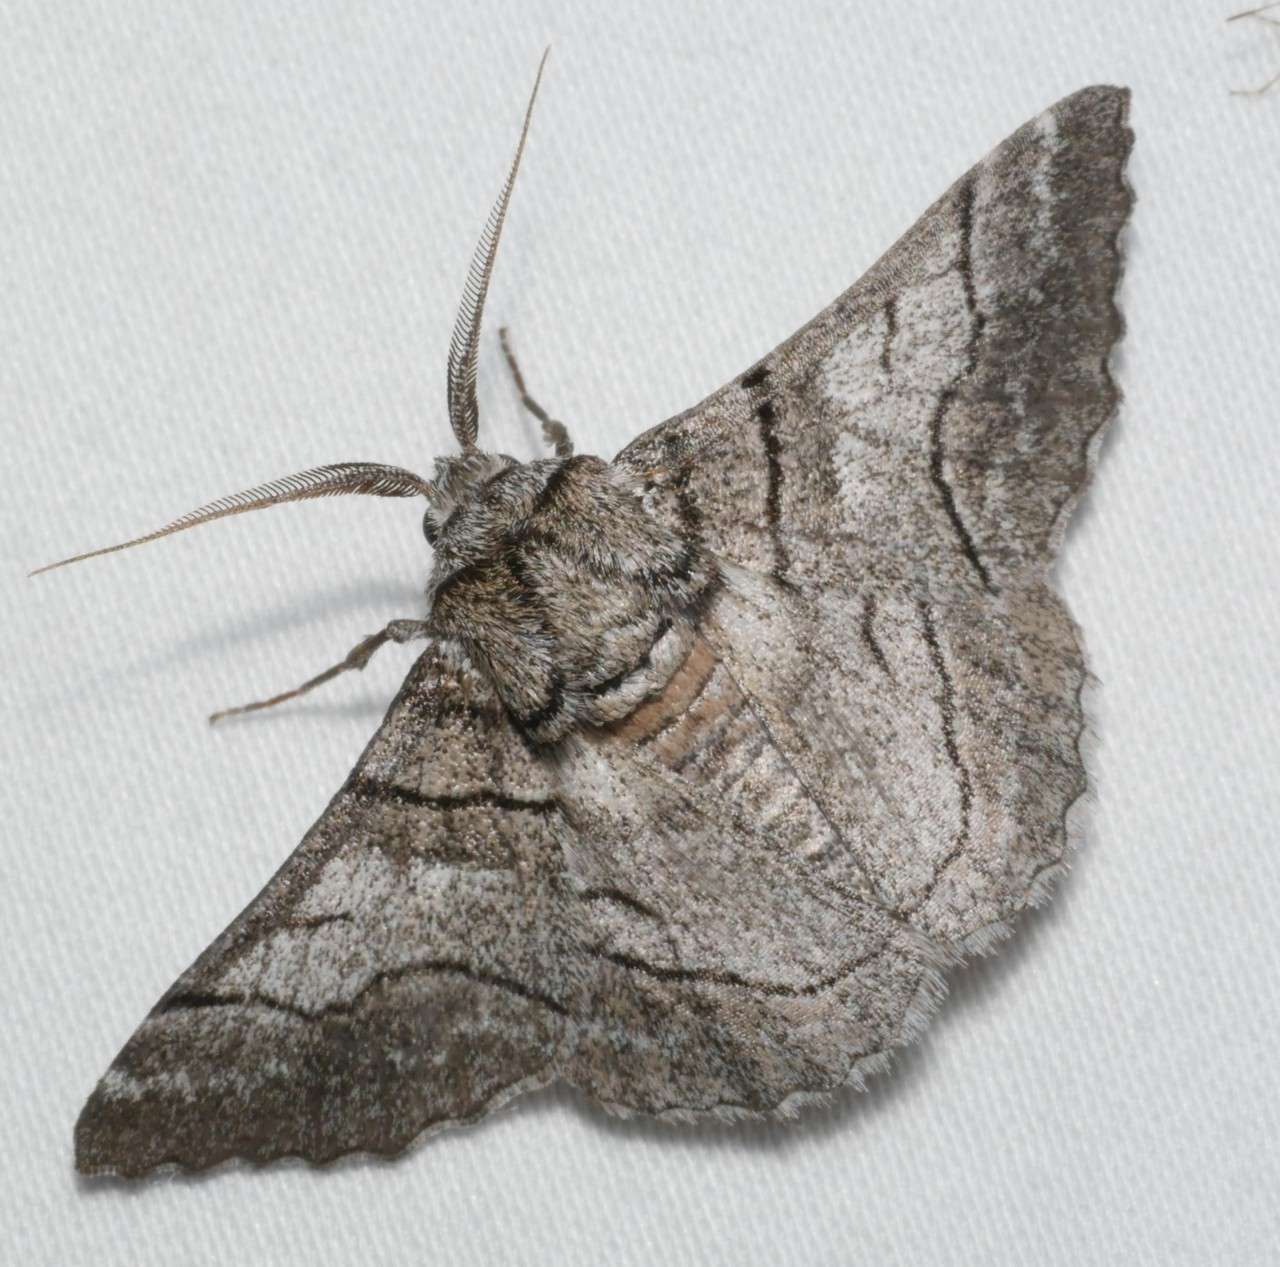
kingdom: Animalia
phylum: Arthropoda
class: Insecta
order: Lepidoptera
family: Geometridae
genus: Hypobapta
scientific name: Hypobapta diffundens
